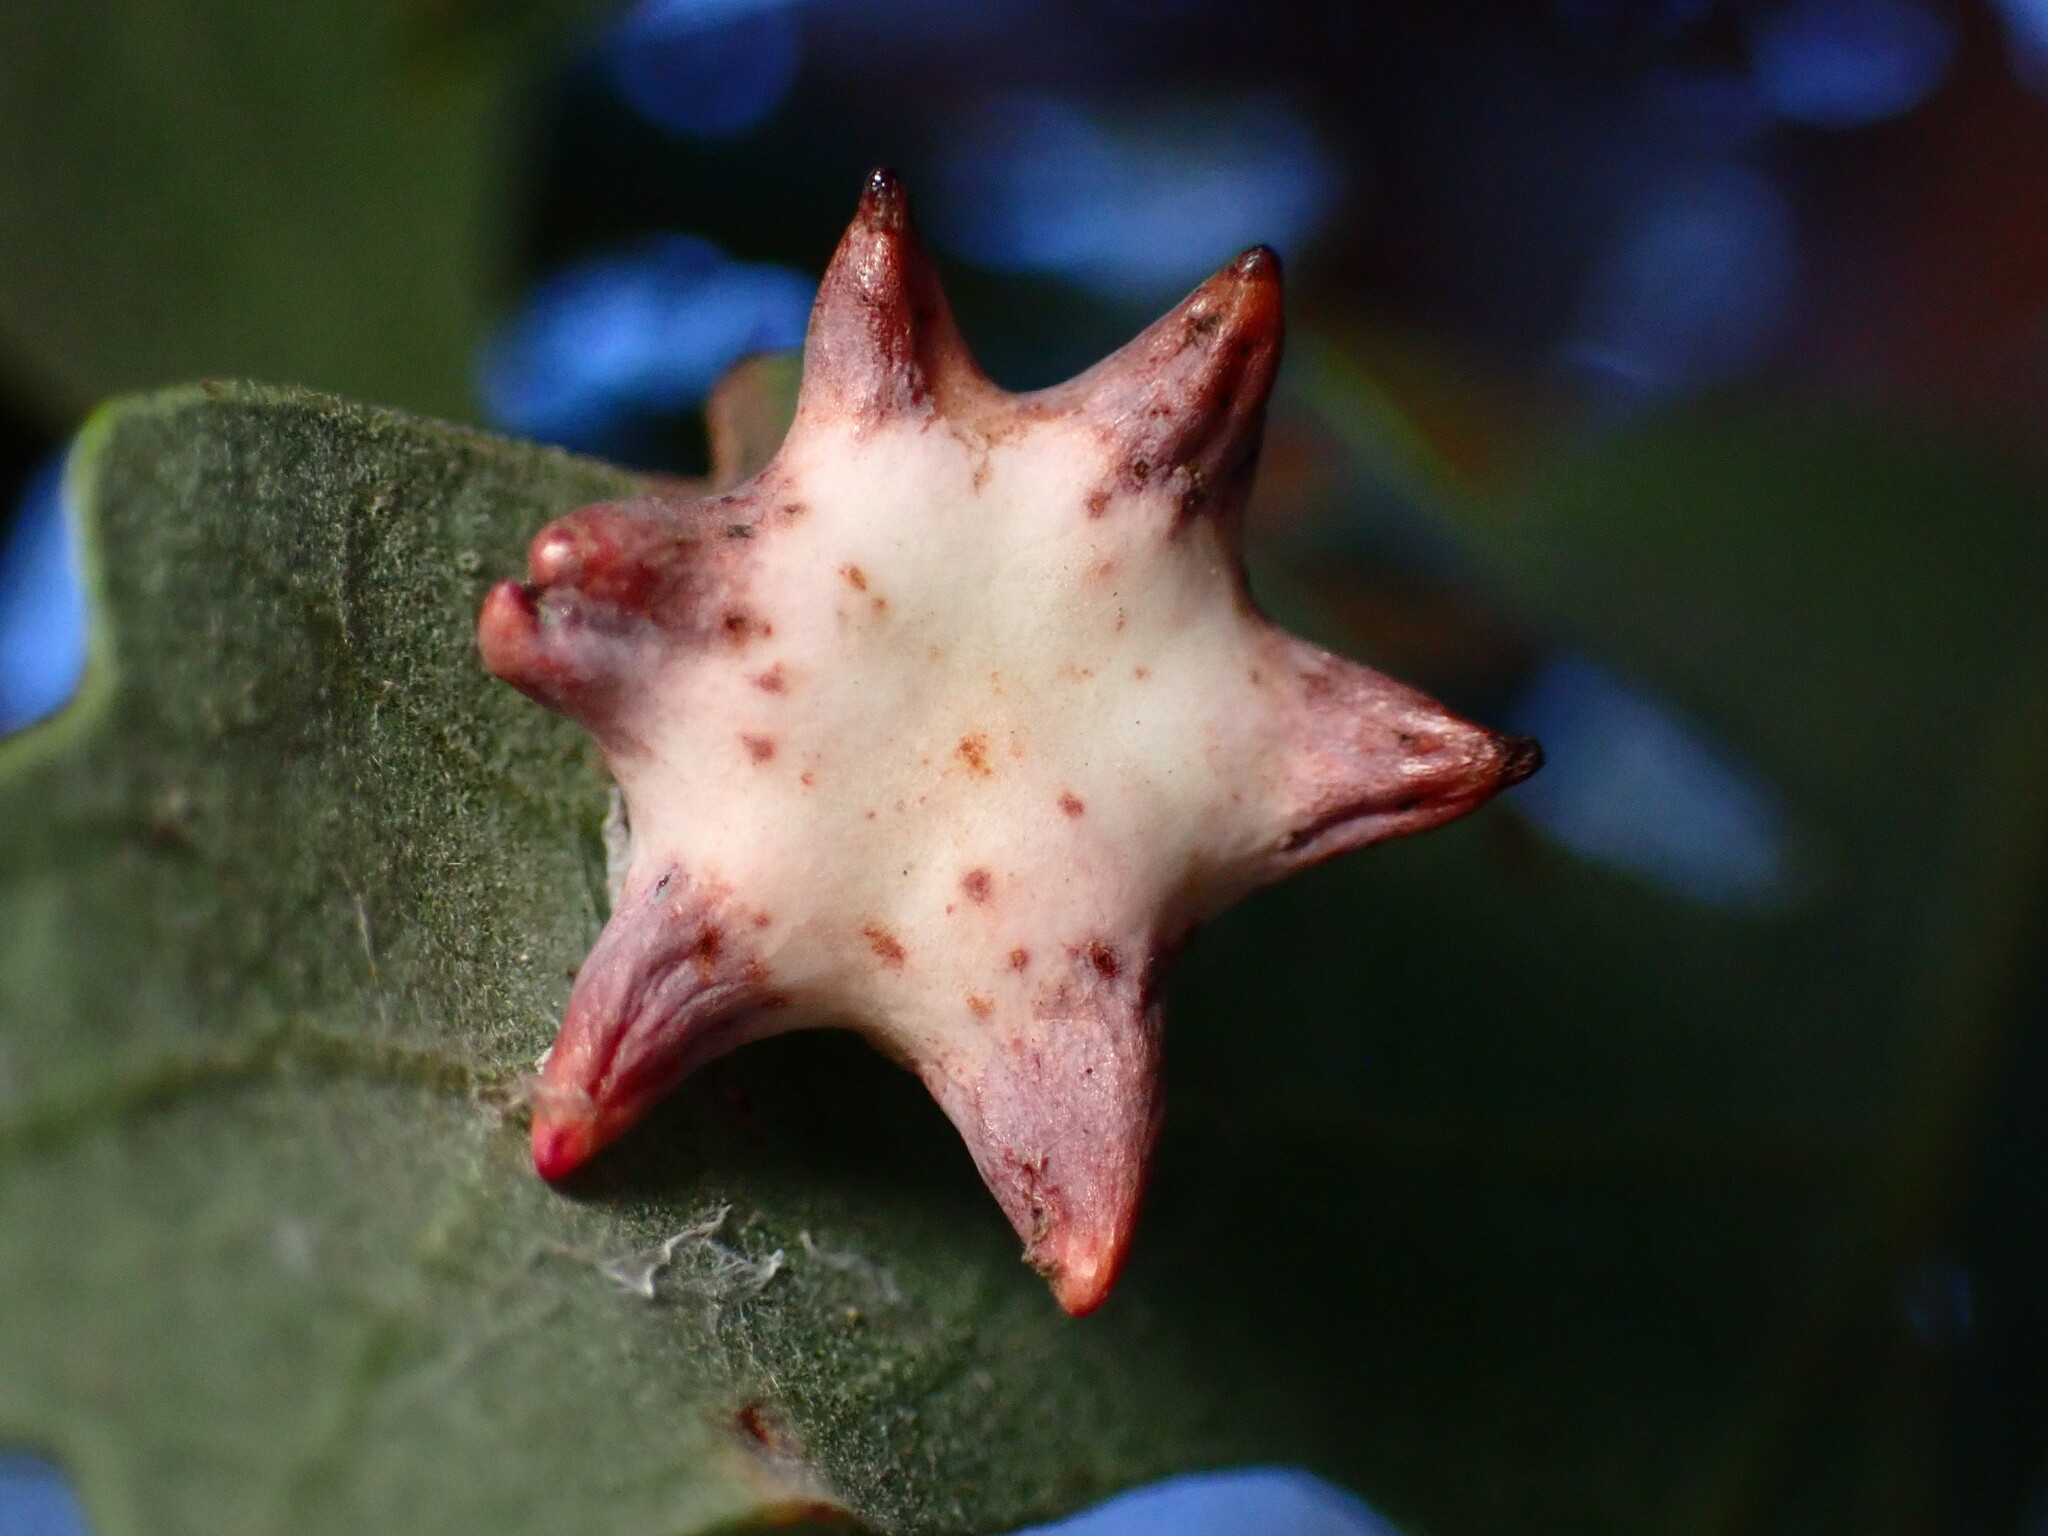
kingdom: Animalia
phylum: Arthropoda
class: Insecta
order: Hymenoptera
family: Cynipidae
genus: Cynips
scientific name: Cynips douglasi
